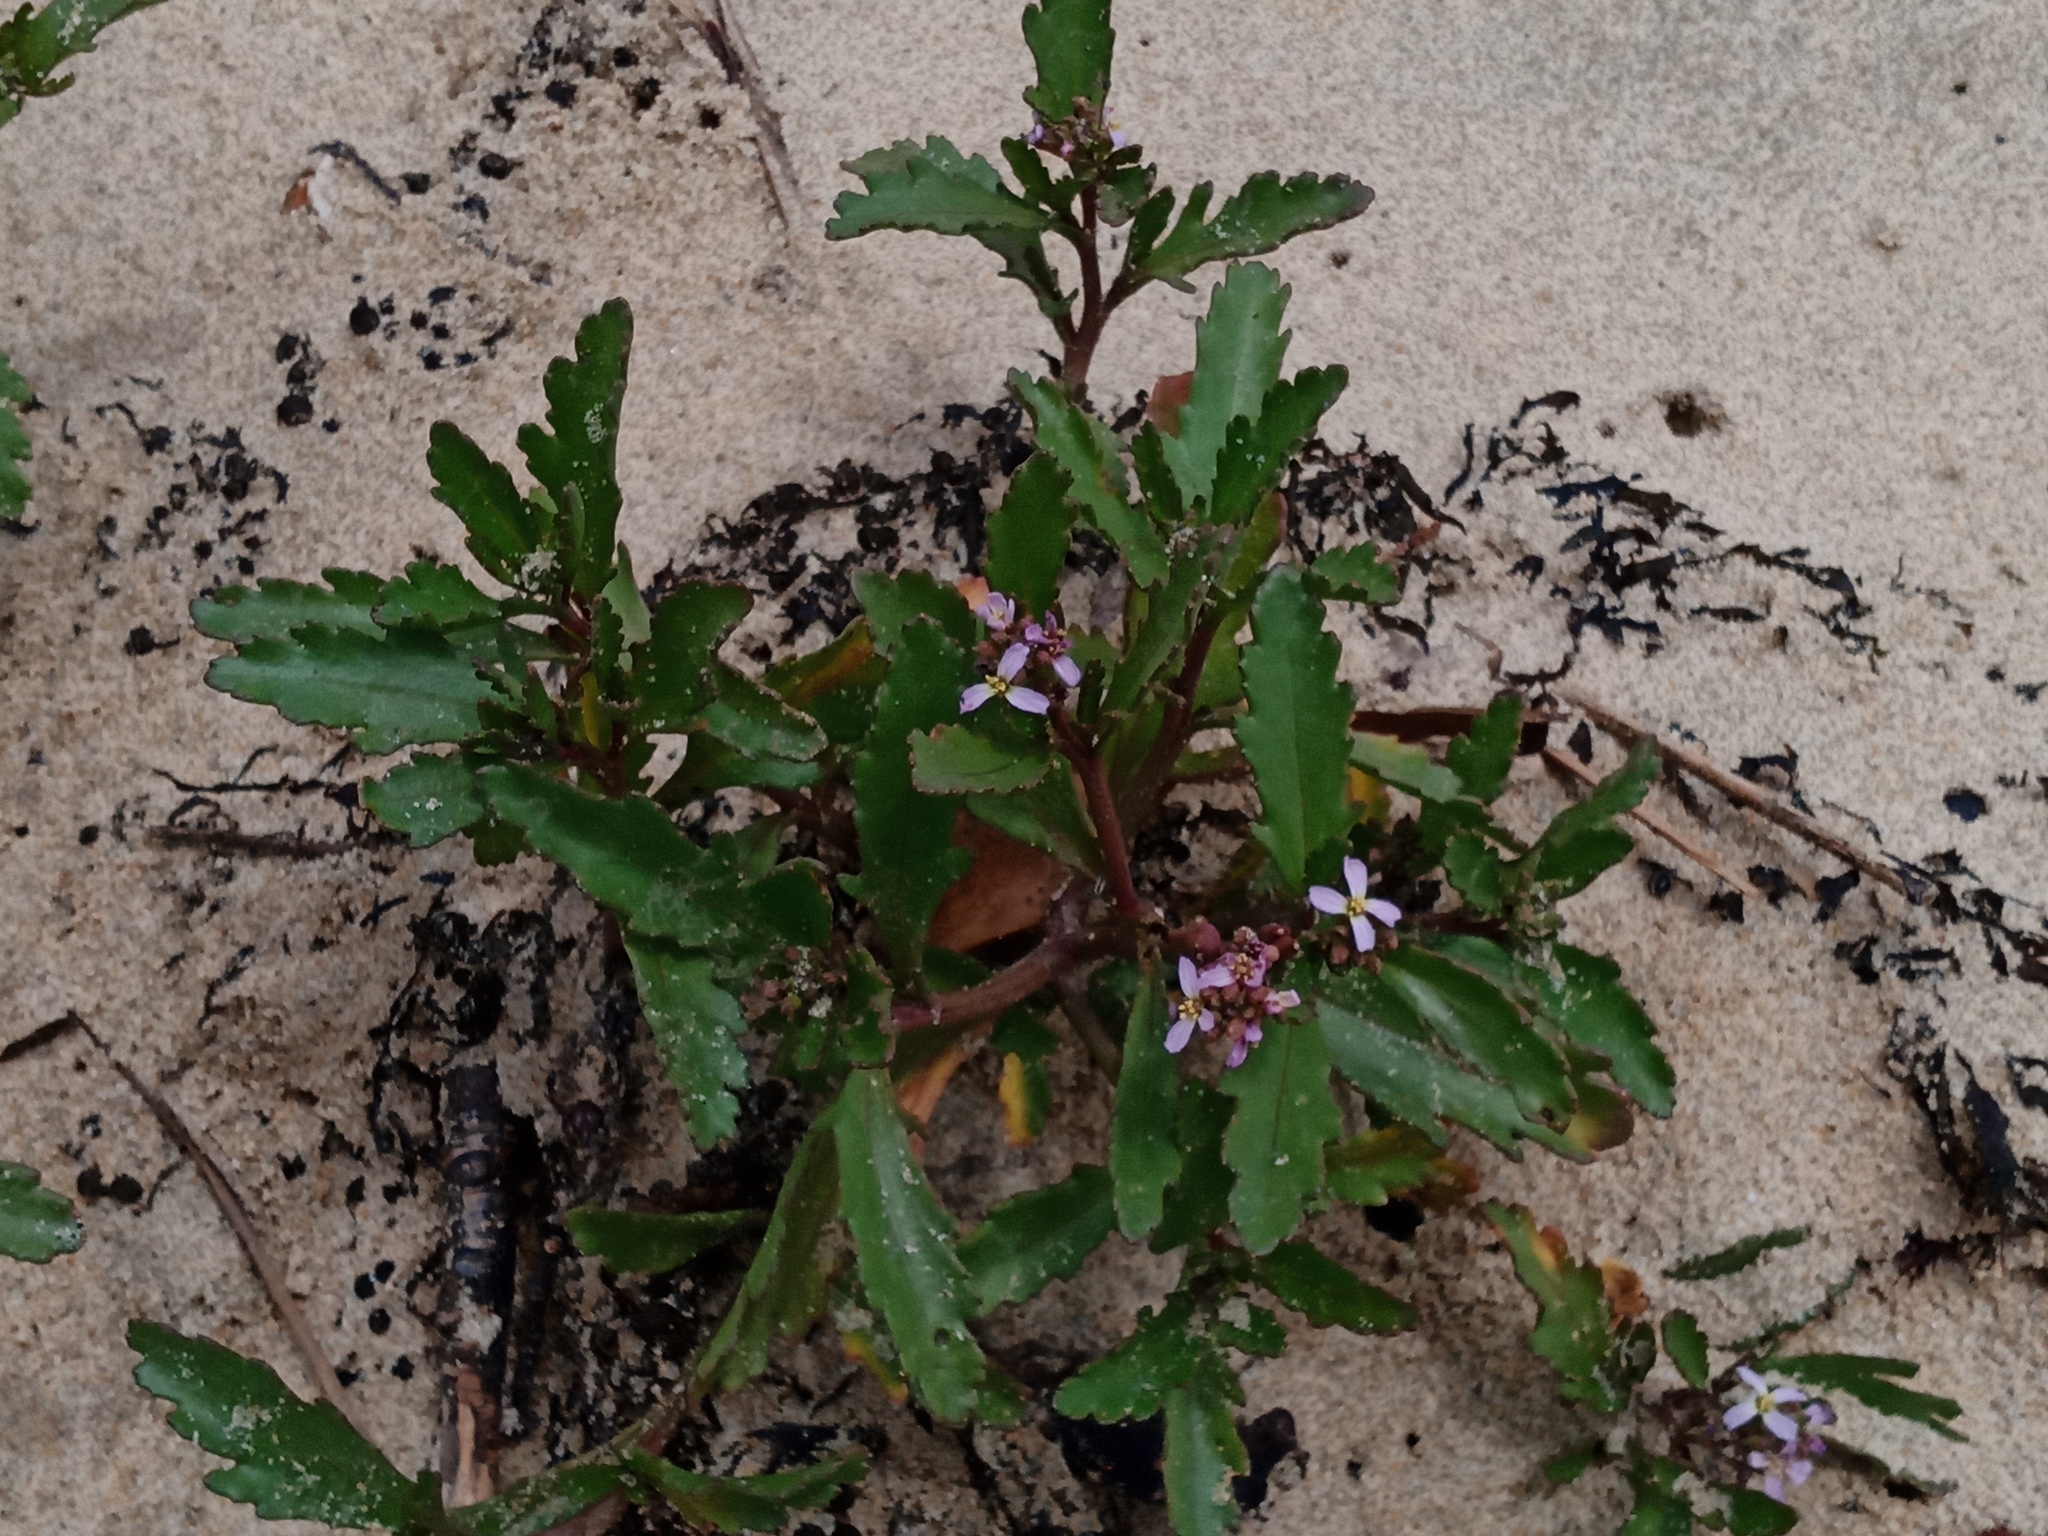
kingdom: Plantae
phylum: Tracheophyta
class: Magnoliopsida
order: Brassicales
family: Brassicaceae
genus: Cakile
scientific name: Cakile edentula
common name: American sea rocket
